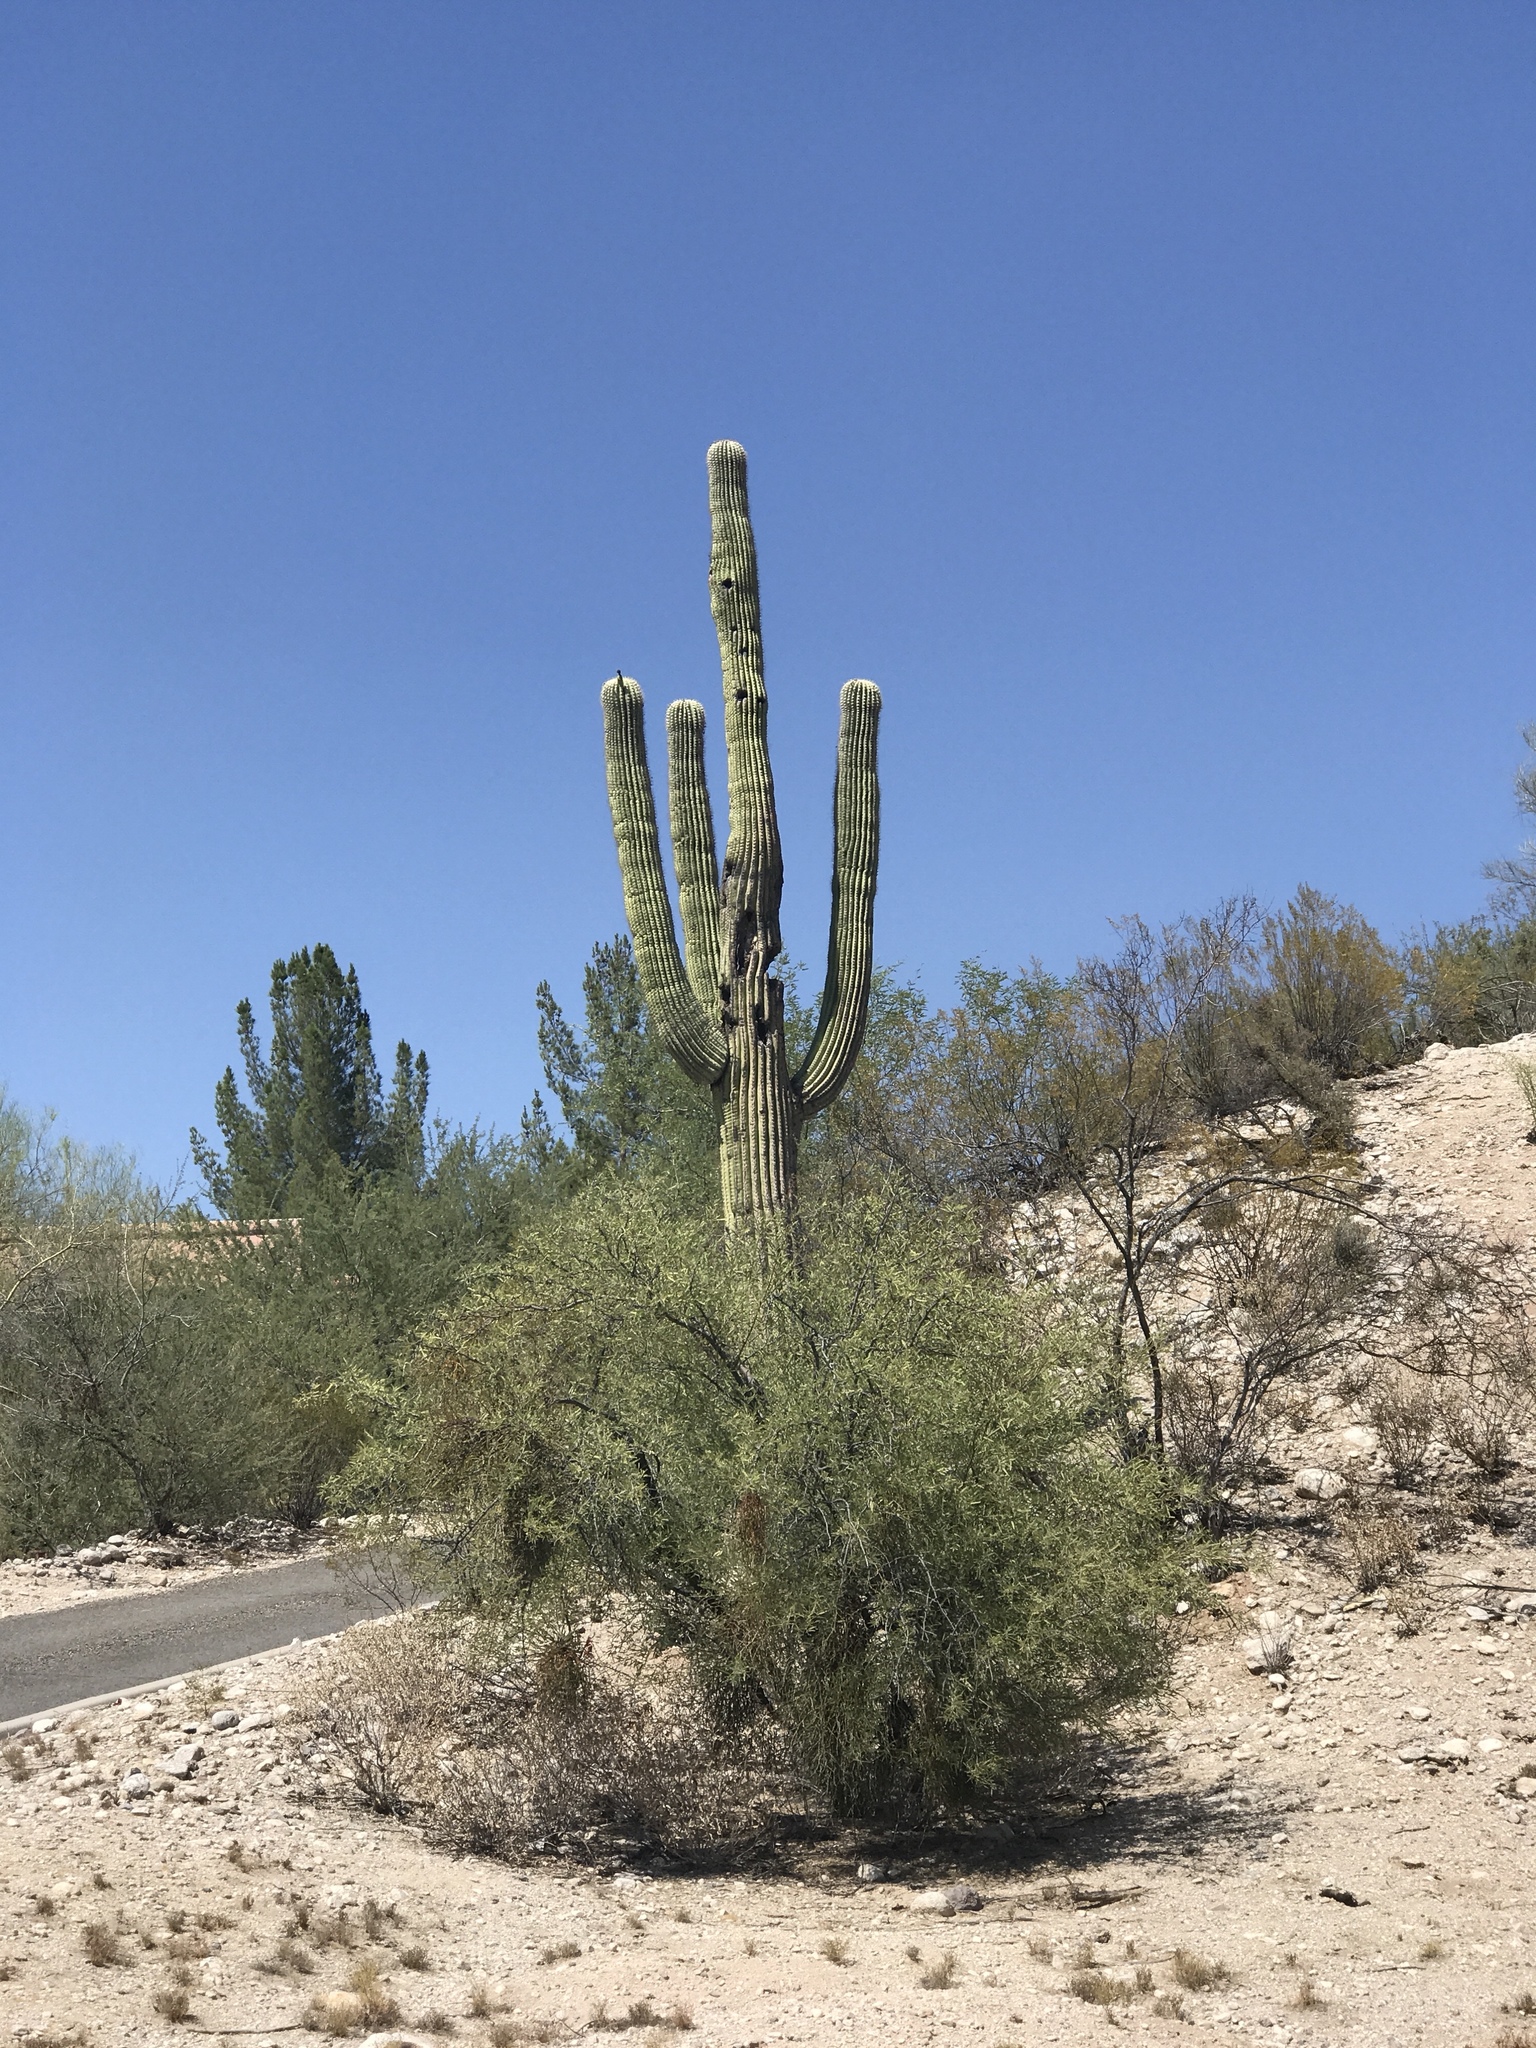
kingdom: Plantae
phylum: Tracheophyta
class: Magnoliopsida
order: Caryophyllales
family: Cactaceae
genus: Carnegiea
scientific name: Carnegiea gigantea
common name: Saguaro
